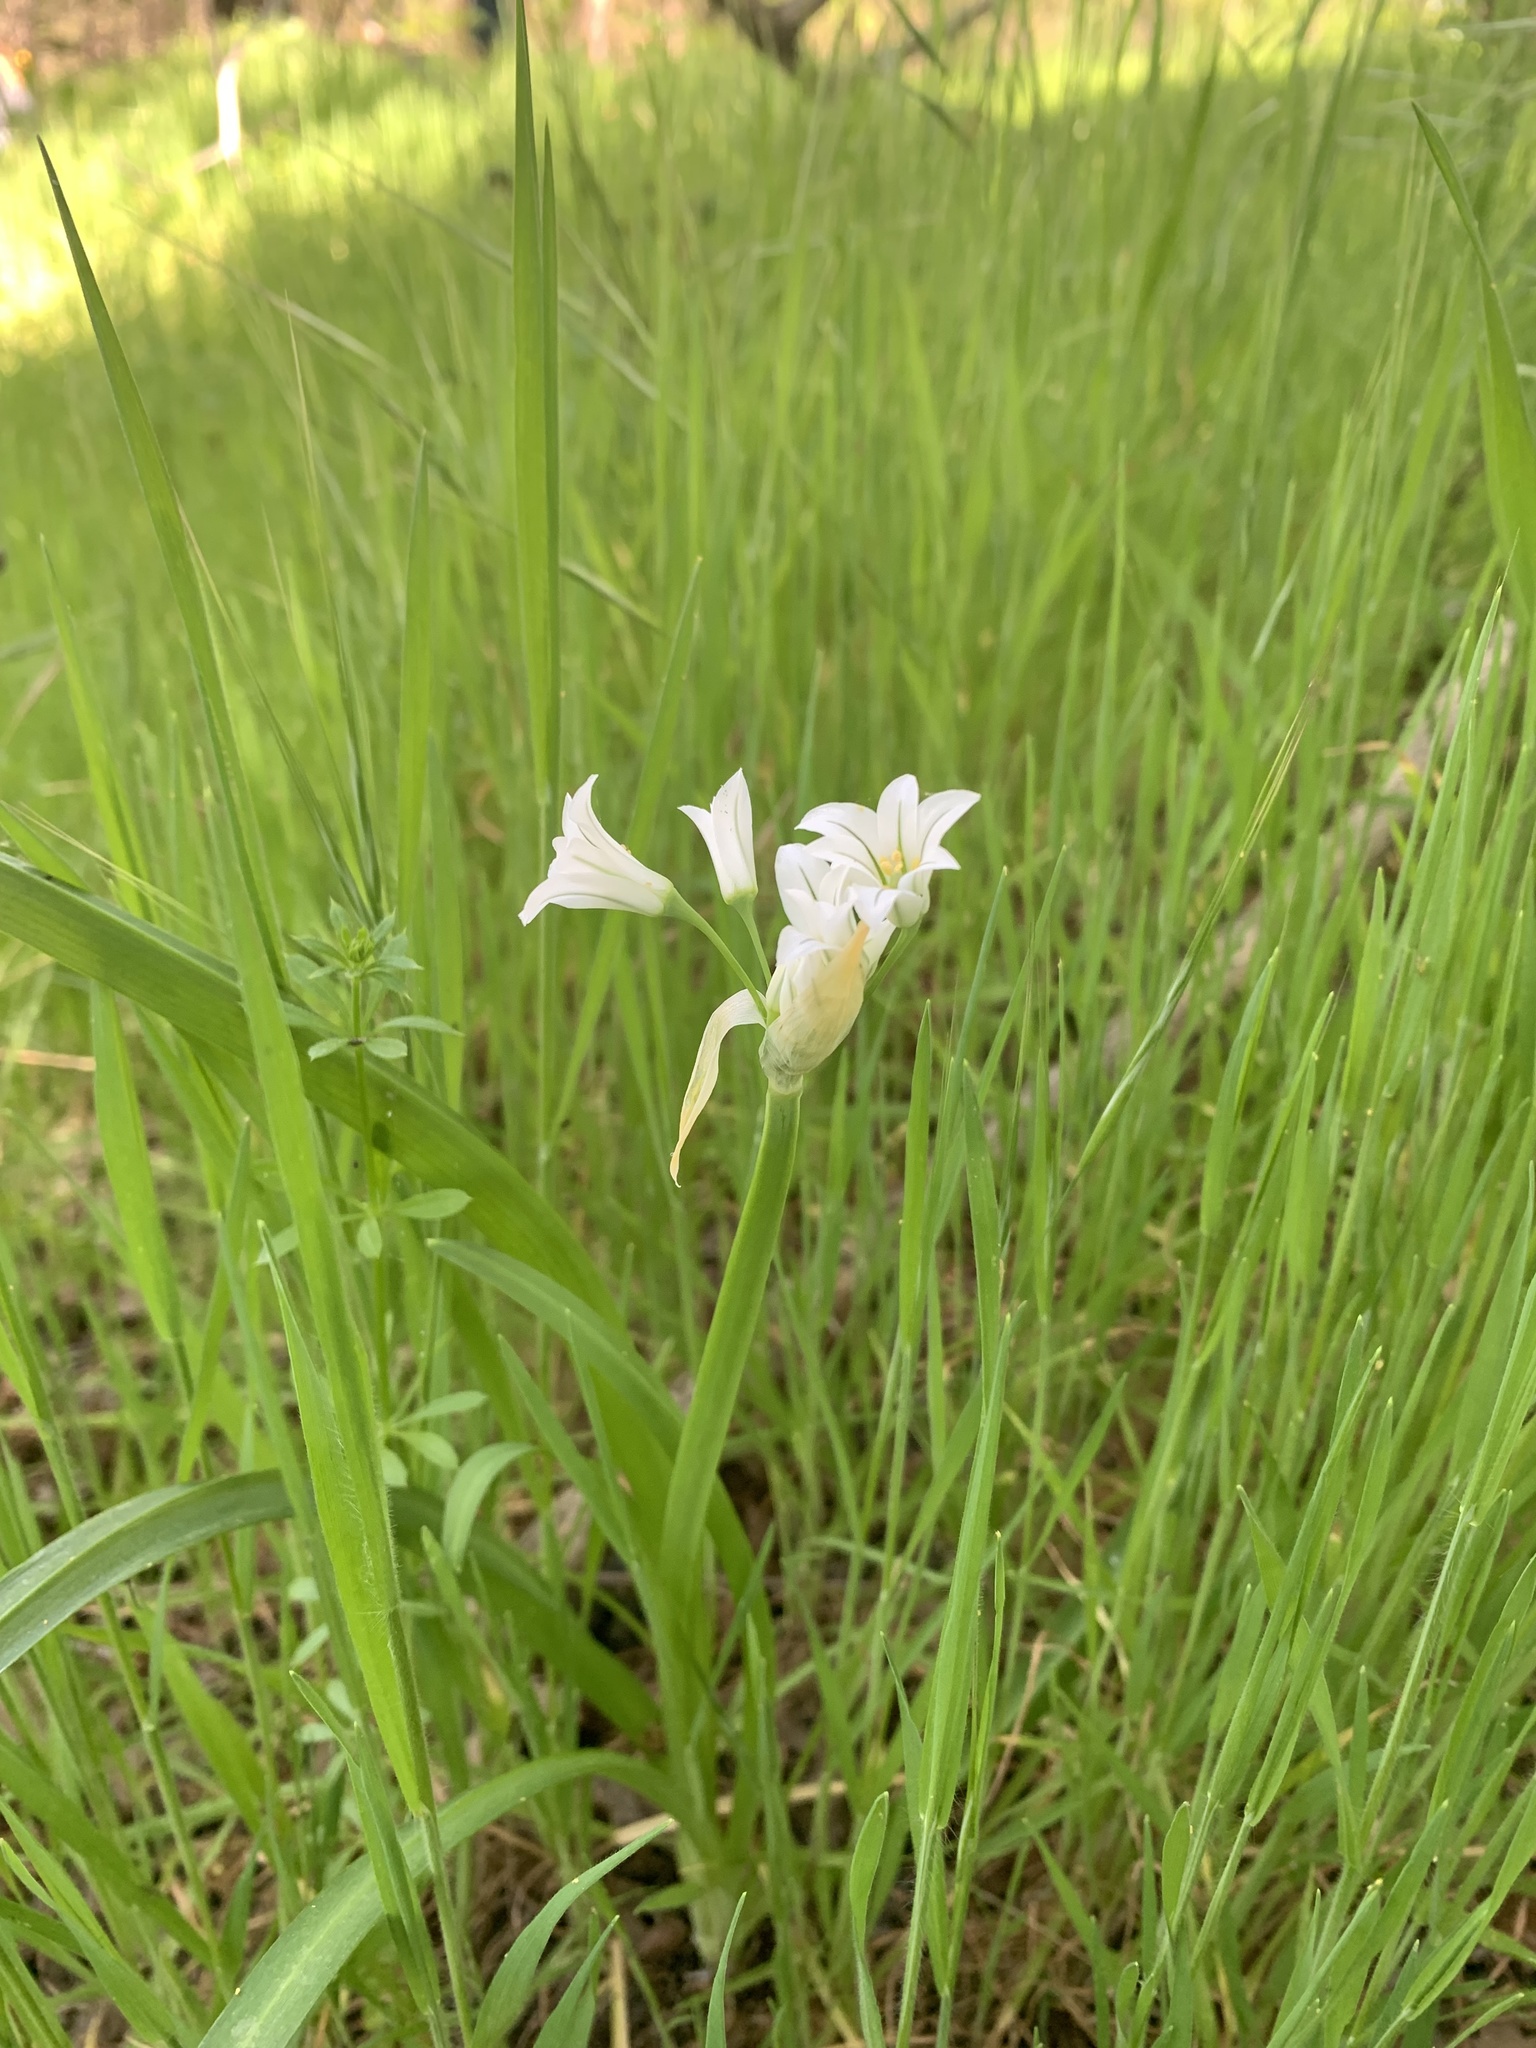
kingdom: Plantae
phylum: Tracheophyta
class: Liliopsida
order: Asparagales
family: Amaryllidaceae
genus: Allium
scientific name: Allium triquetrum
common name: Three-cornered garlic
